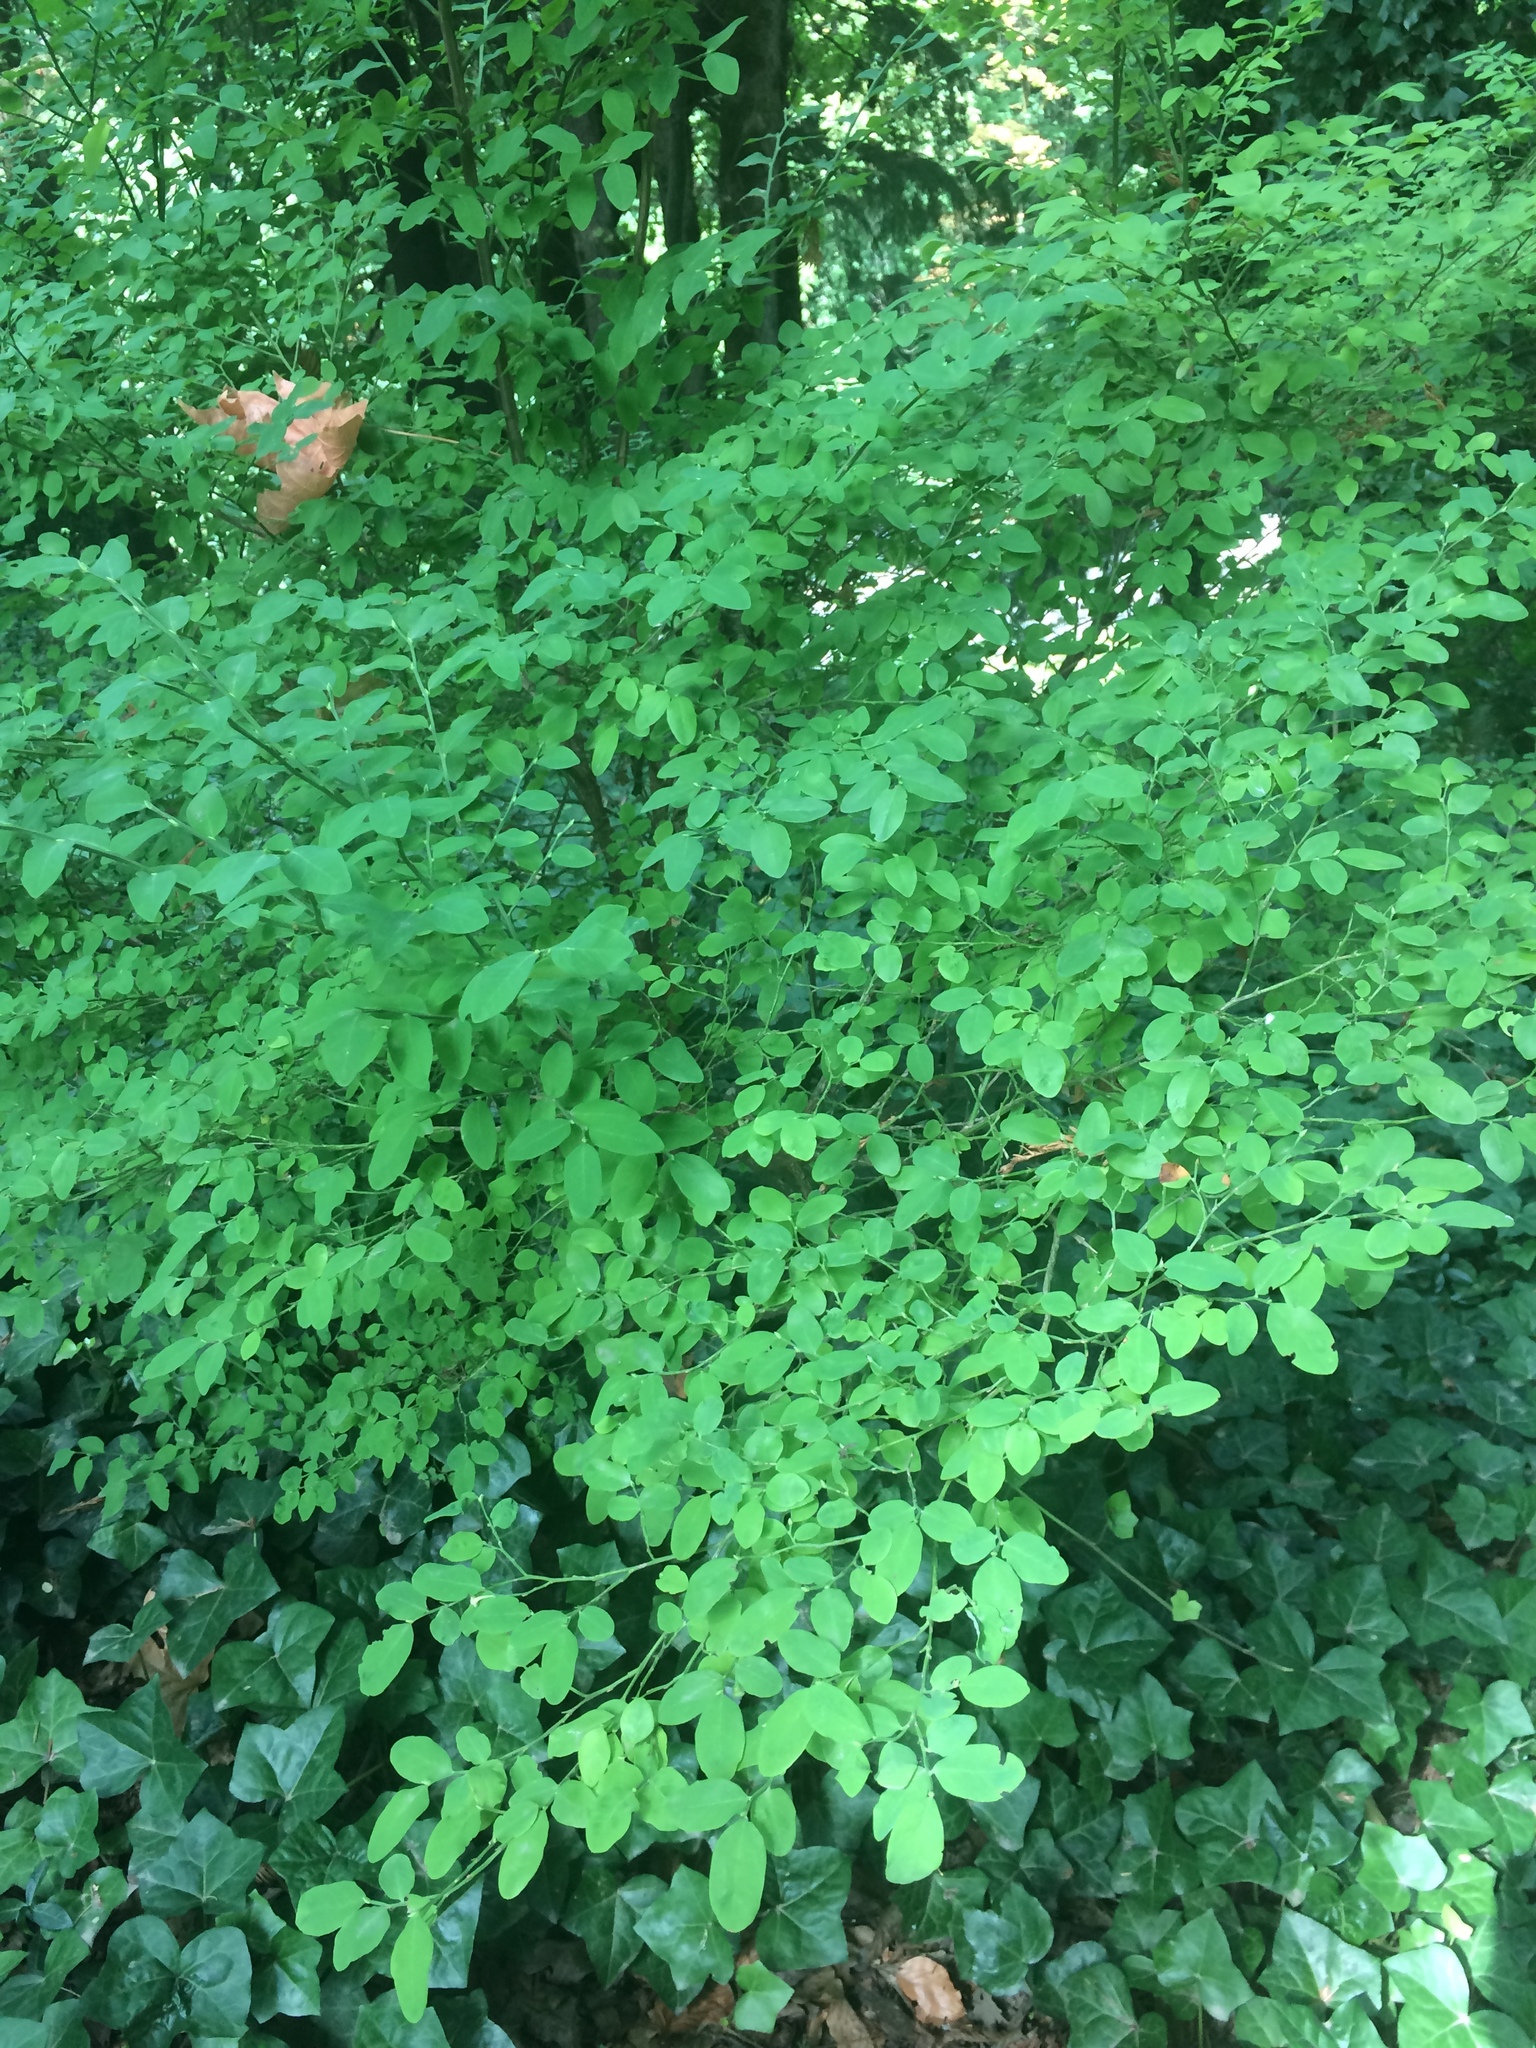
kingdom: Plantae
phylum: Tracheophyta
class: Magnoliopsida
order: Ericales
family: Ericaceae
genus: Vaccinium
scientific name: Vaccinium parvifolium
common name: Red-huckleberry
